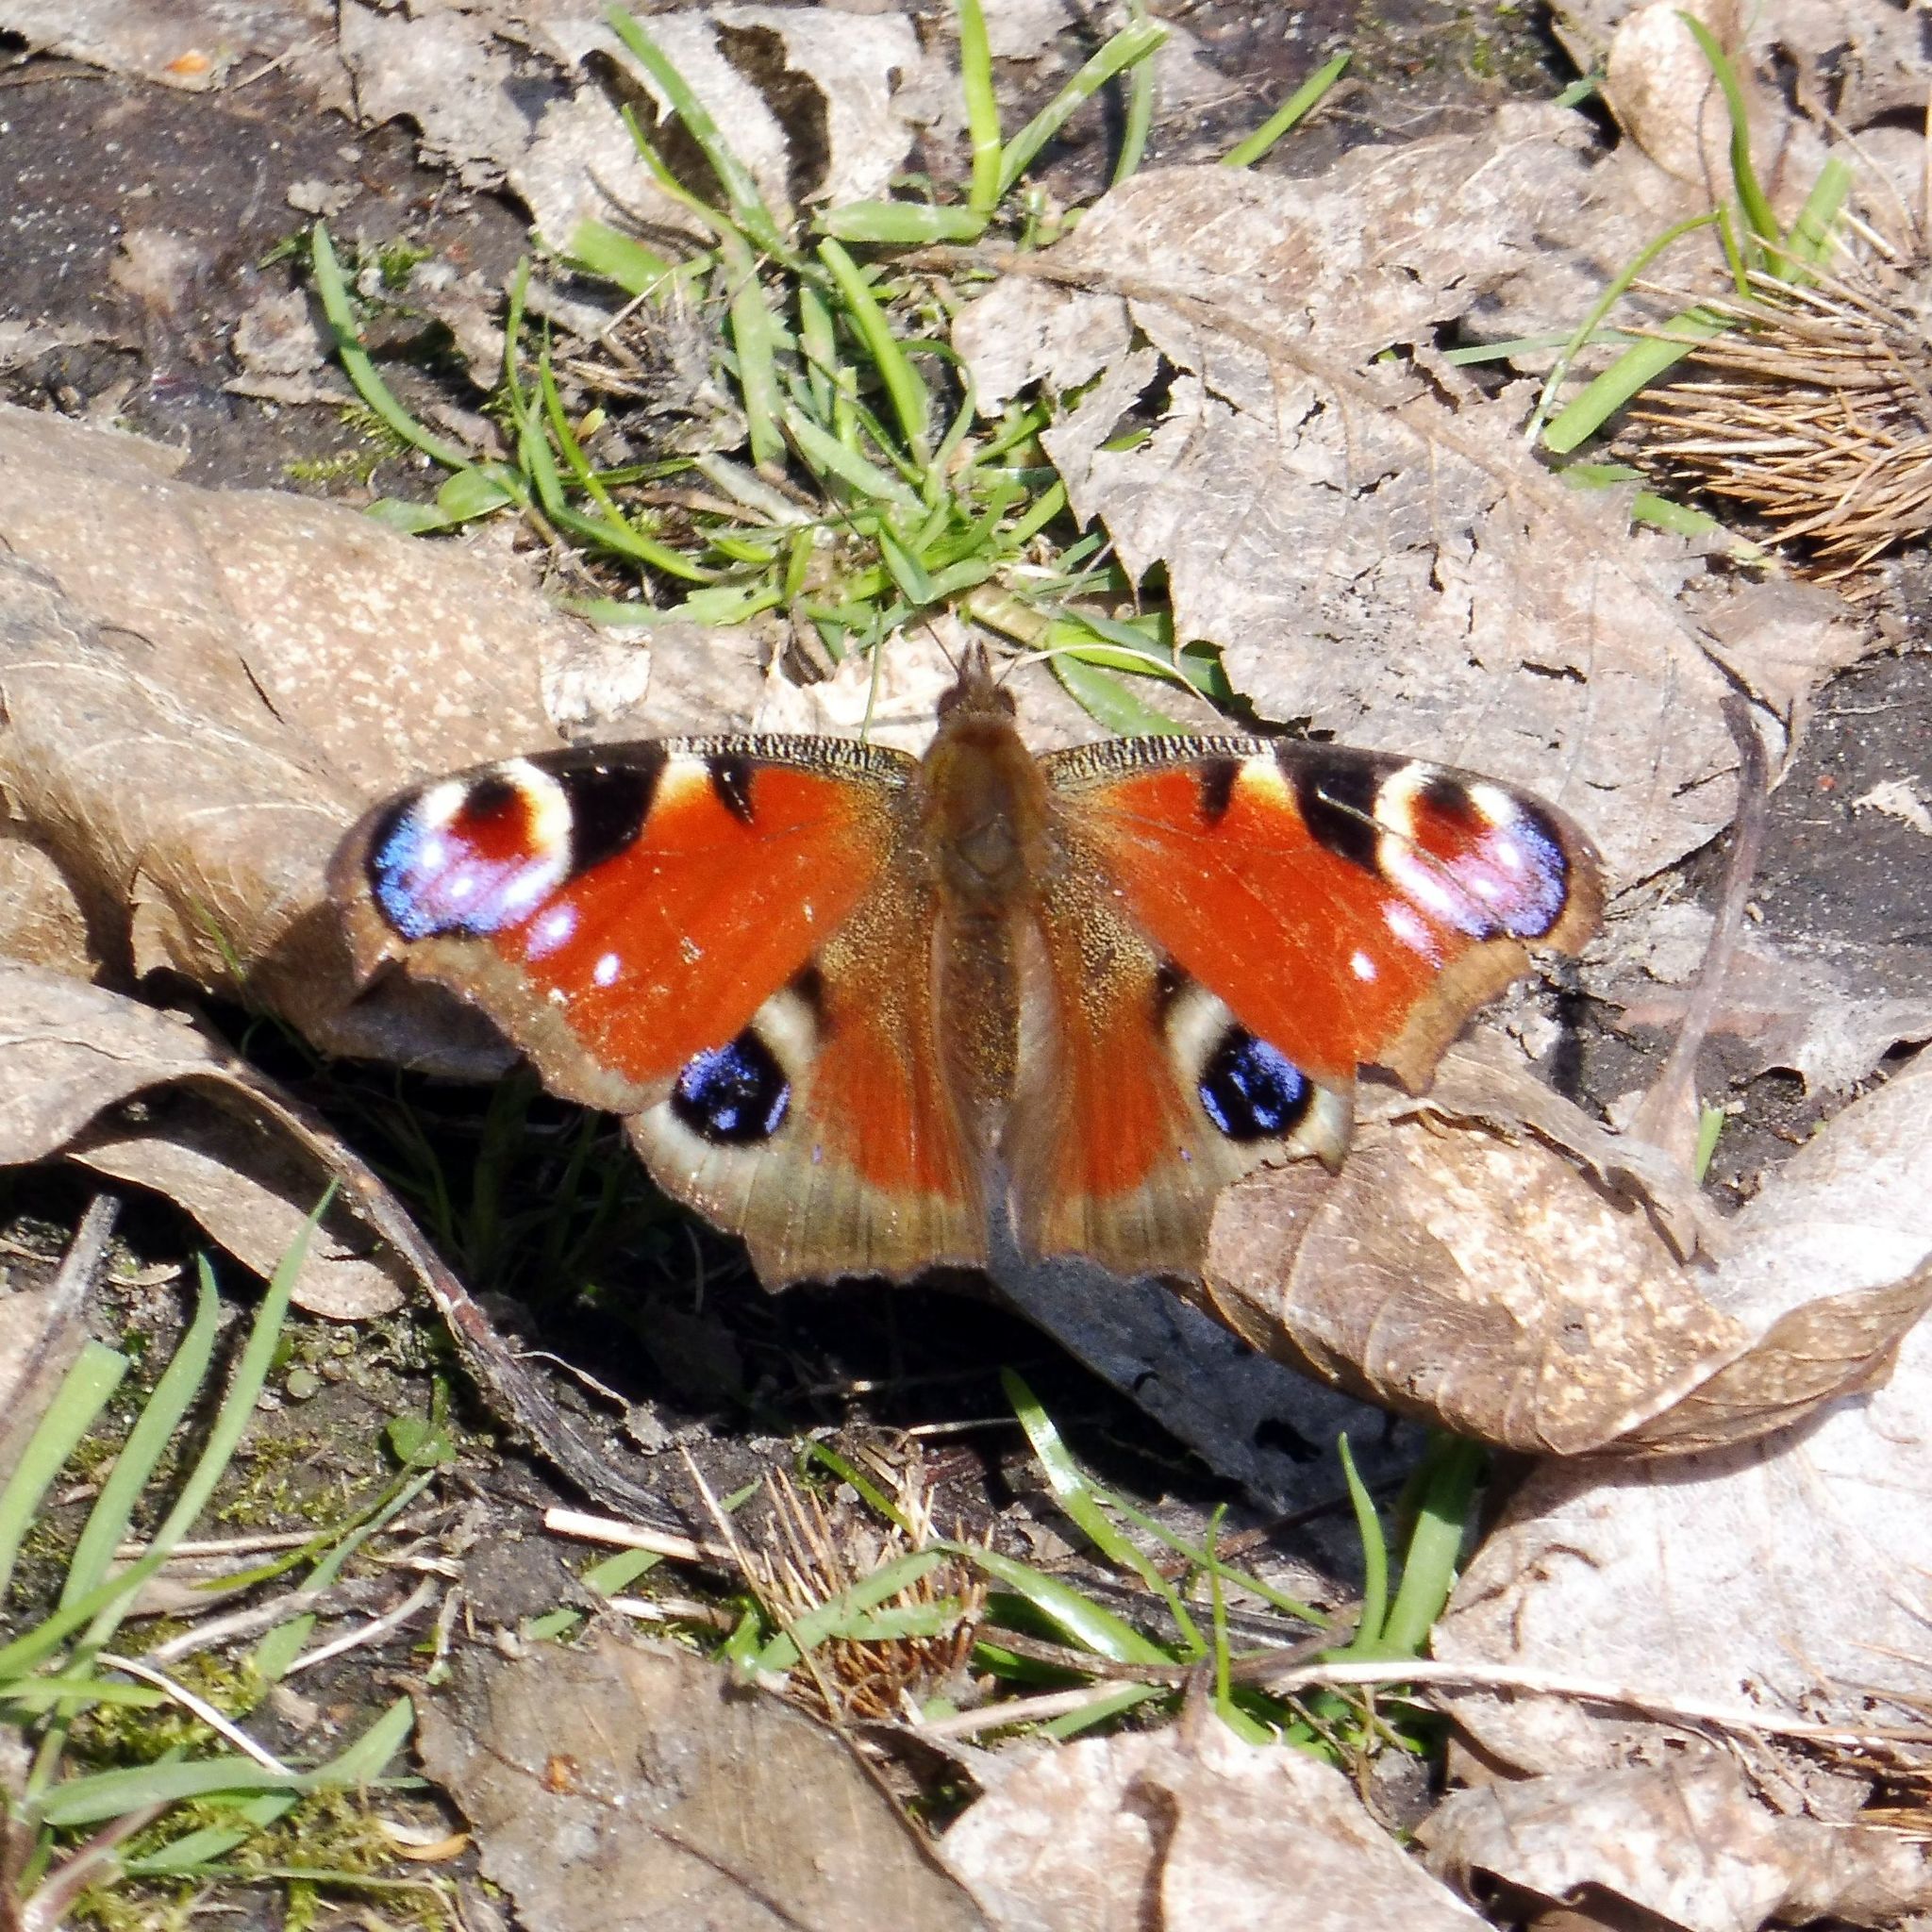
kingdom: Animalia
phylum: Arthropoda
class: Insecta
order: Lepidoptera
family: Nymphalidae
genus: Aglais
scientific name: Aglais io
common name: Peacock
